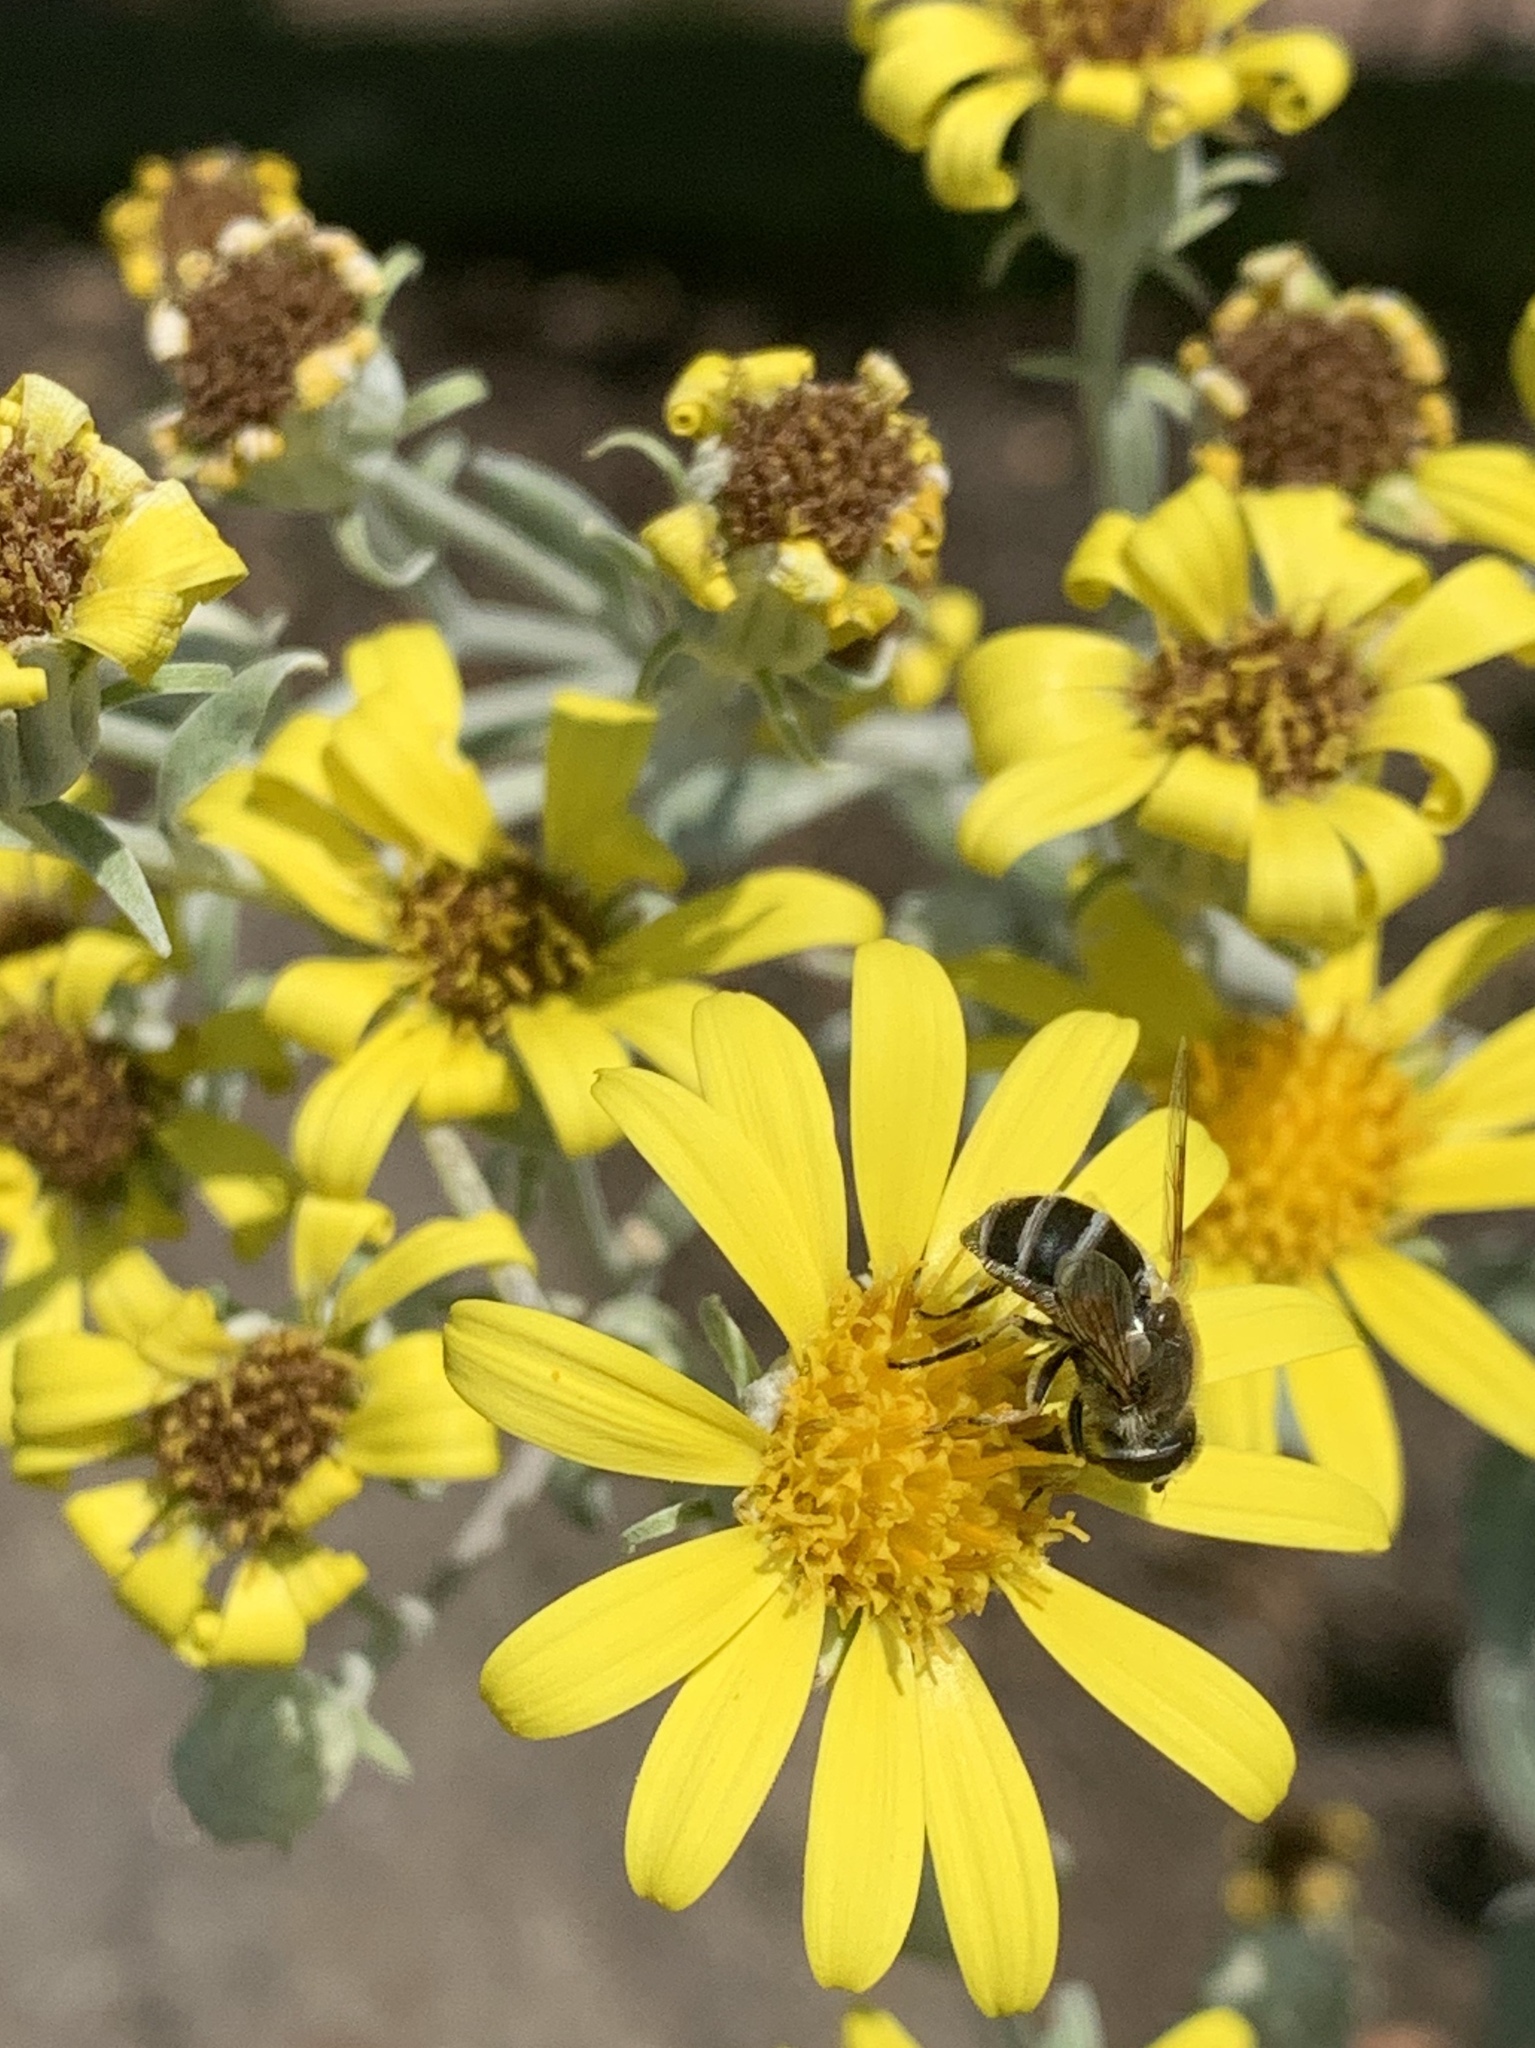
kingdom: Animalia
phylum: Arthropoda
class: Insecta
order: Diptera
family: Syrphidae
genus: Eristalis
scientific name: Eristalis arbustorum
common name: Hover fly
